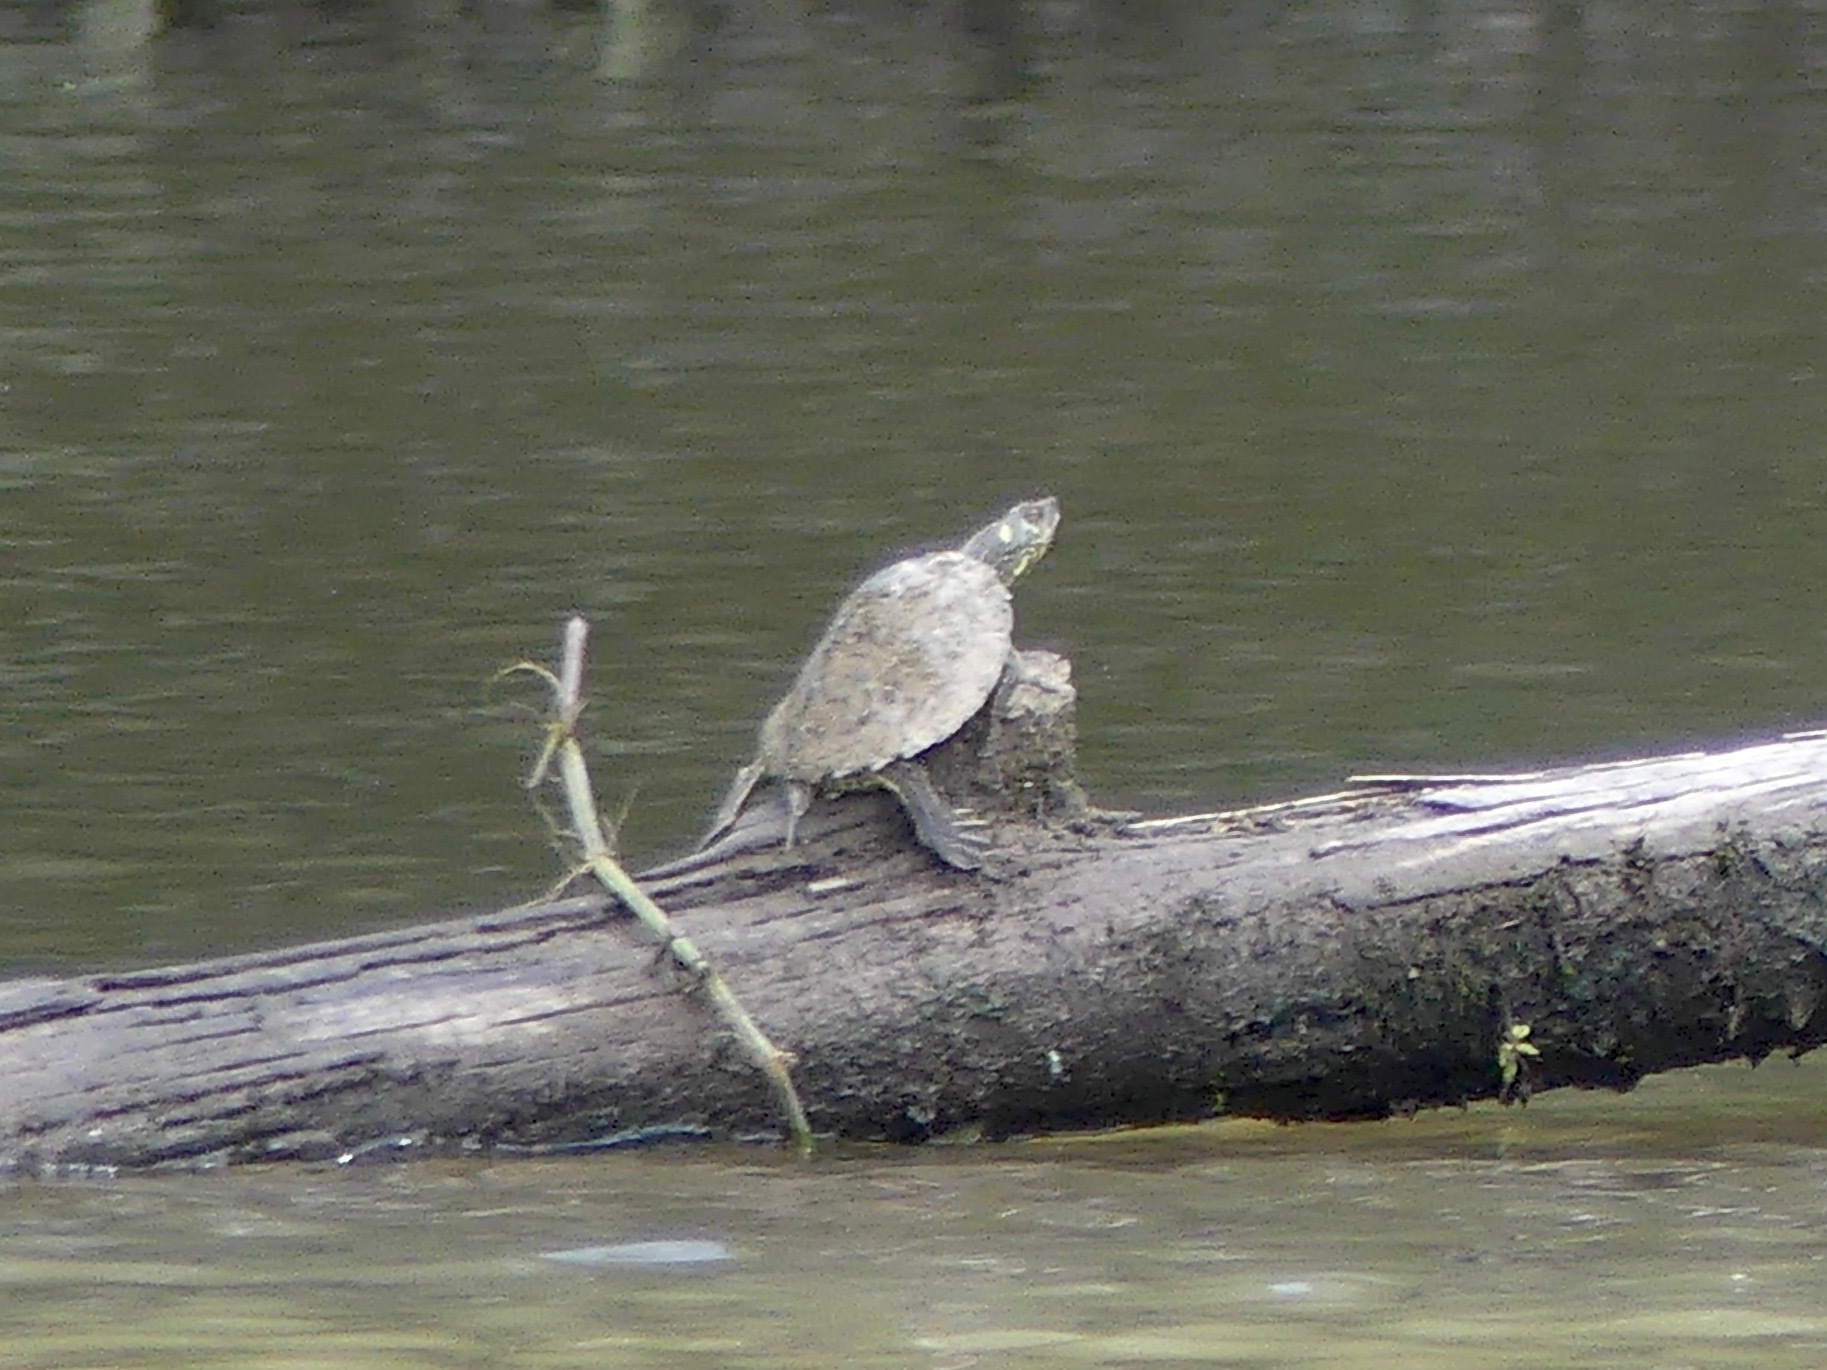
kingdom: Animalia
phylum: Chordata
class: Testudines
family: Emydidae
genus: Graptemys
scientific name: Graptemys pearlensis
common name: Pearl river map turtle
